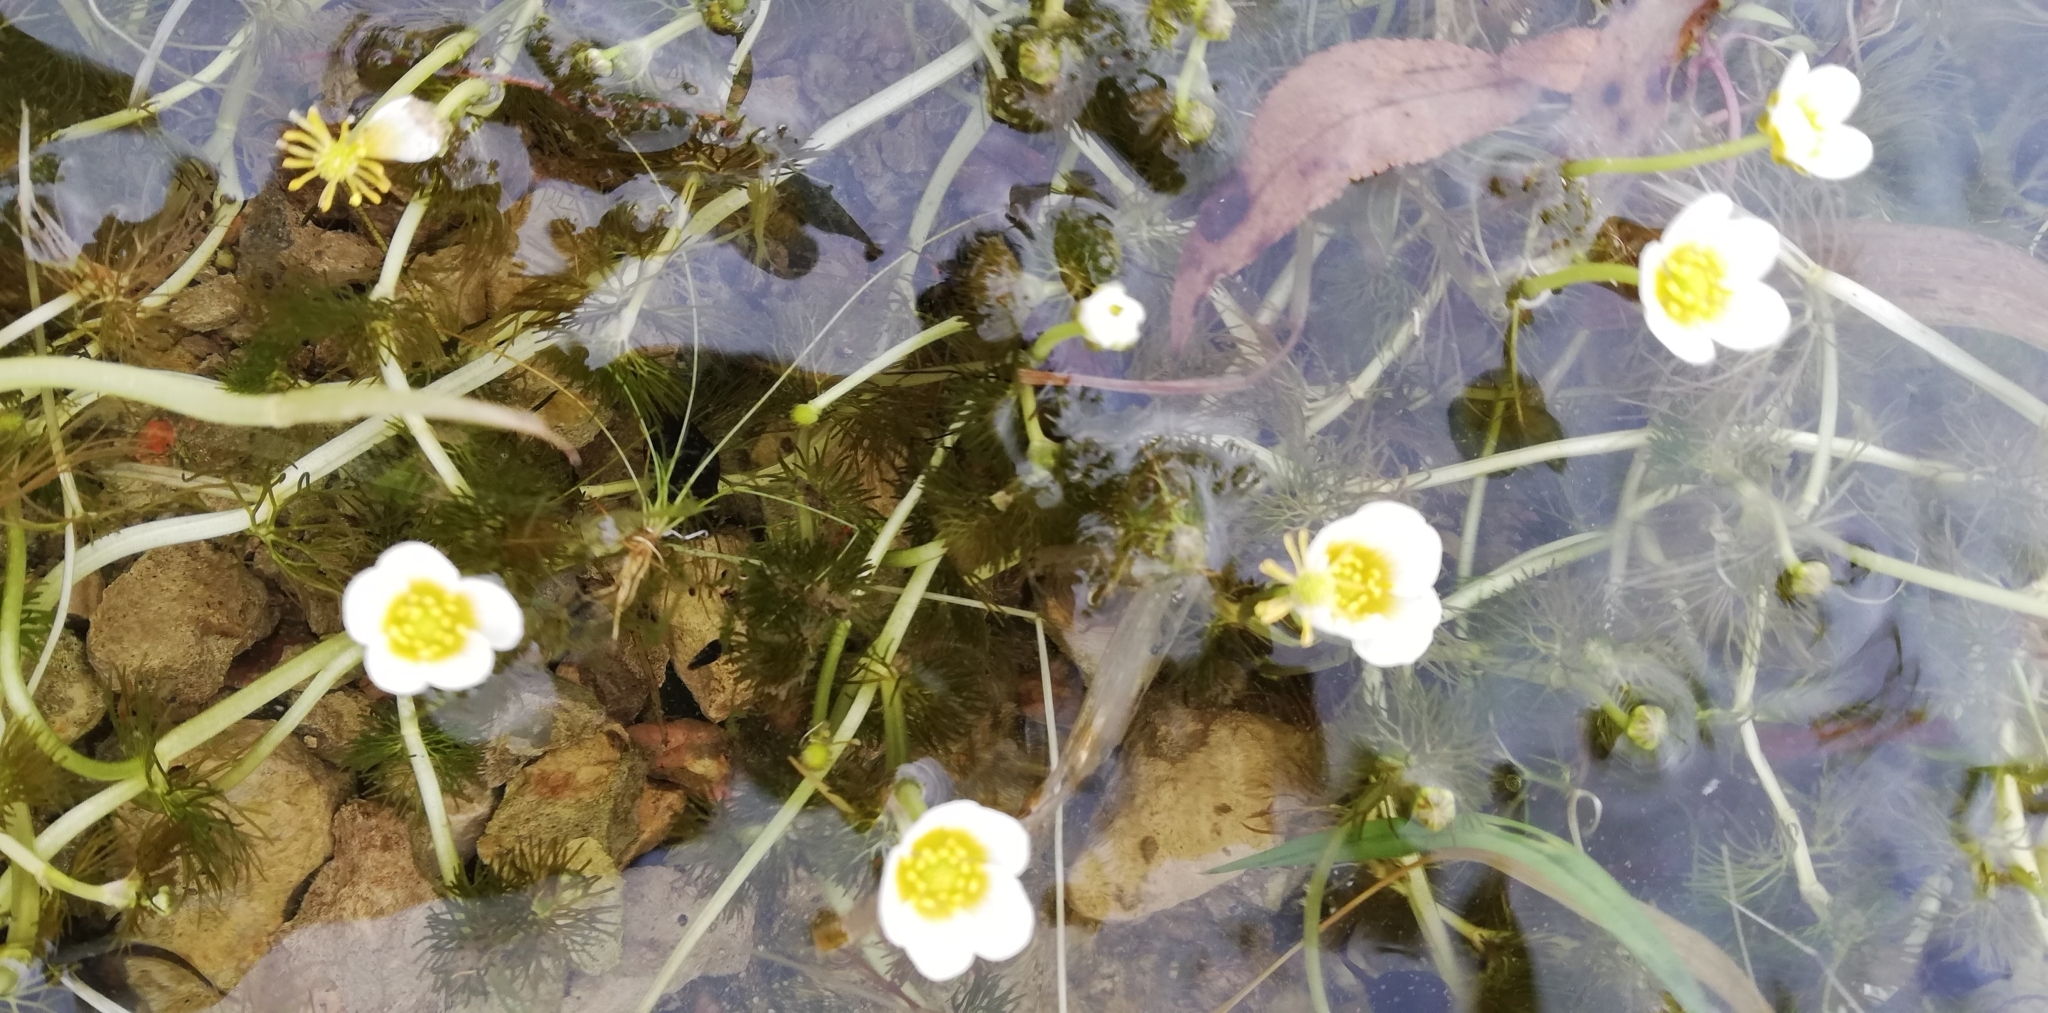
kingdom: Plantae
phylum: Tracheophyta
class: Magnoliopsida
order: Ranunculales
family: Ranunculaceae
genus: Ranunculus
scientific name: Ranunculus aquatilis
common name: Common water-crowfoot
